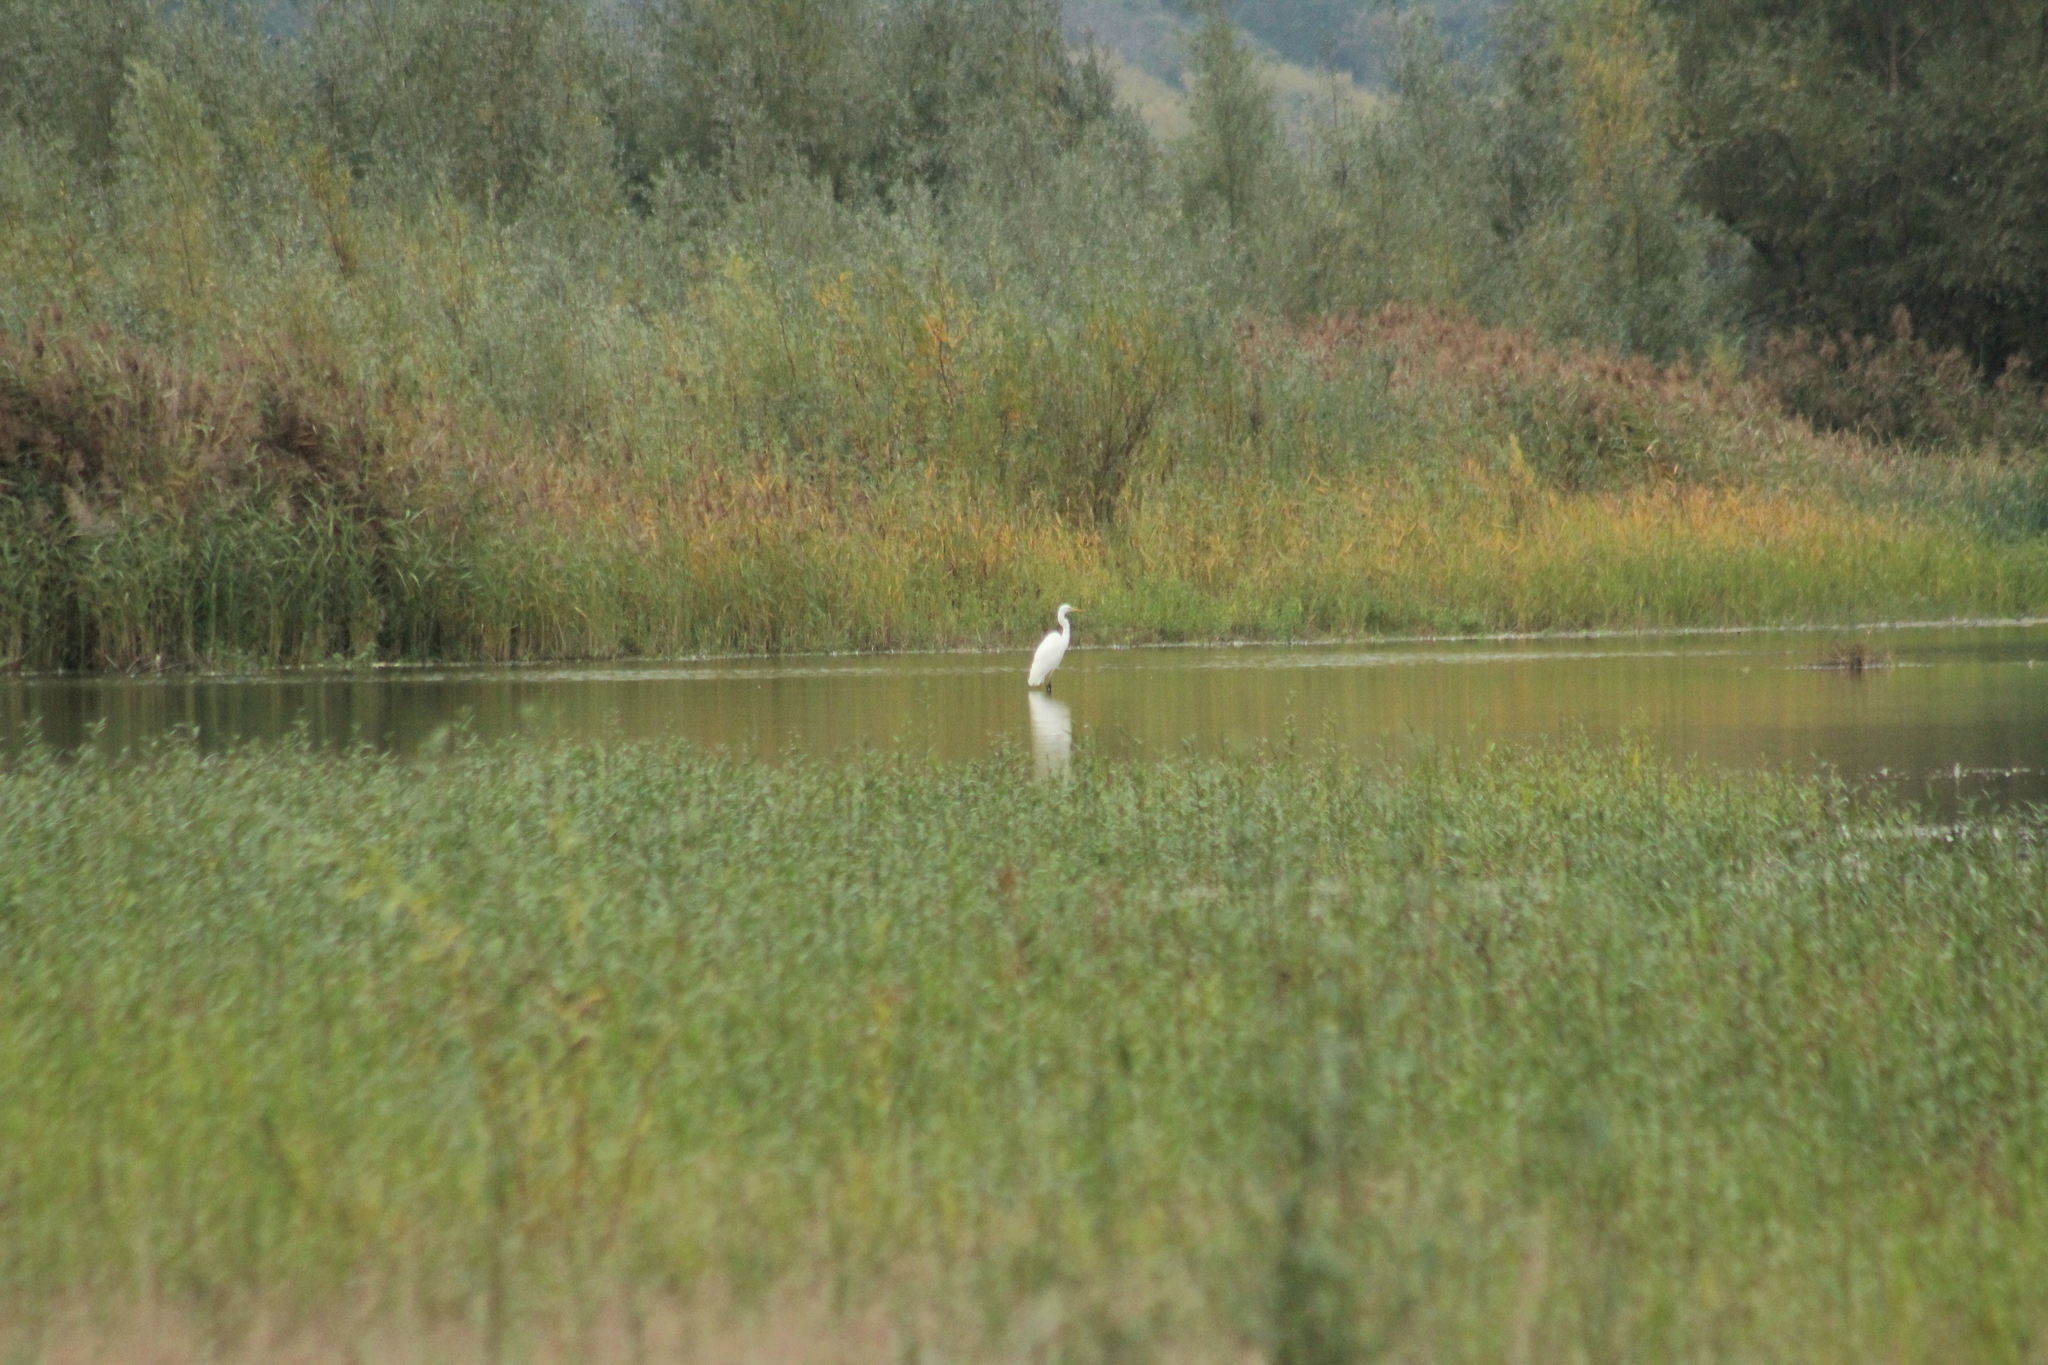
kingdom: Animalia
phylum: Chordata
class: Aves
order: Pelecaniformes
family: Ardeidae
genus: Ardea
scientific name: Ardea alba
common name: Great egret
